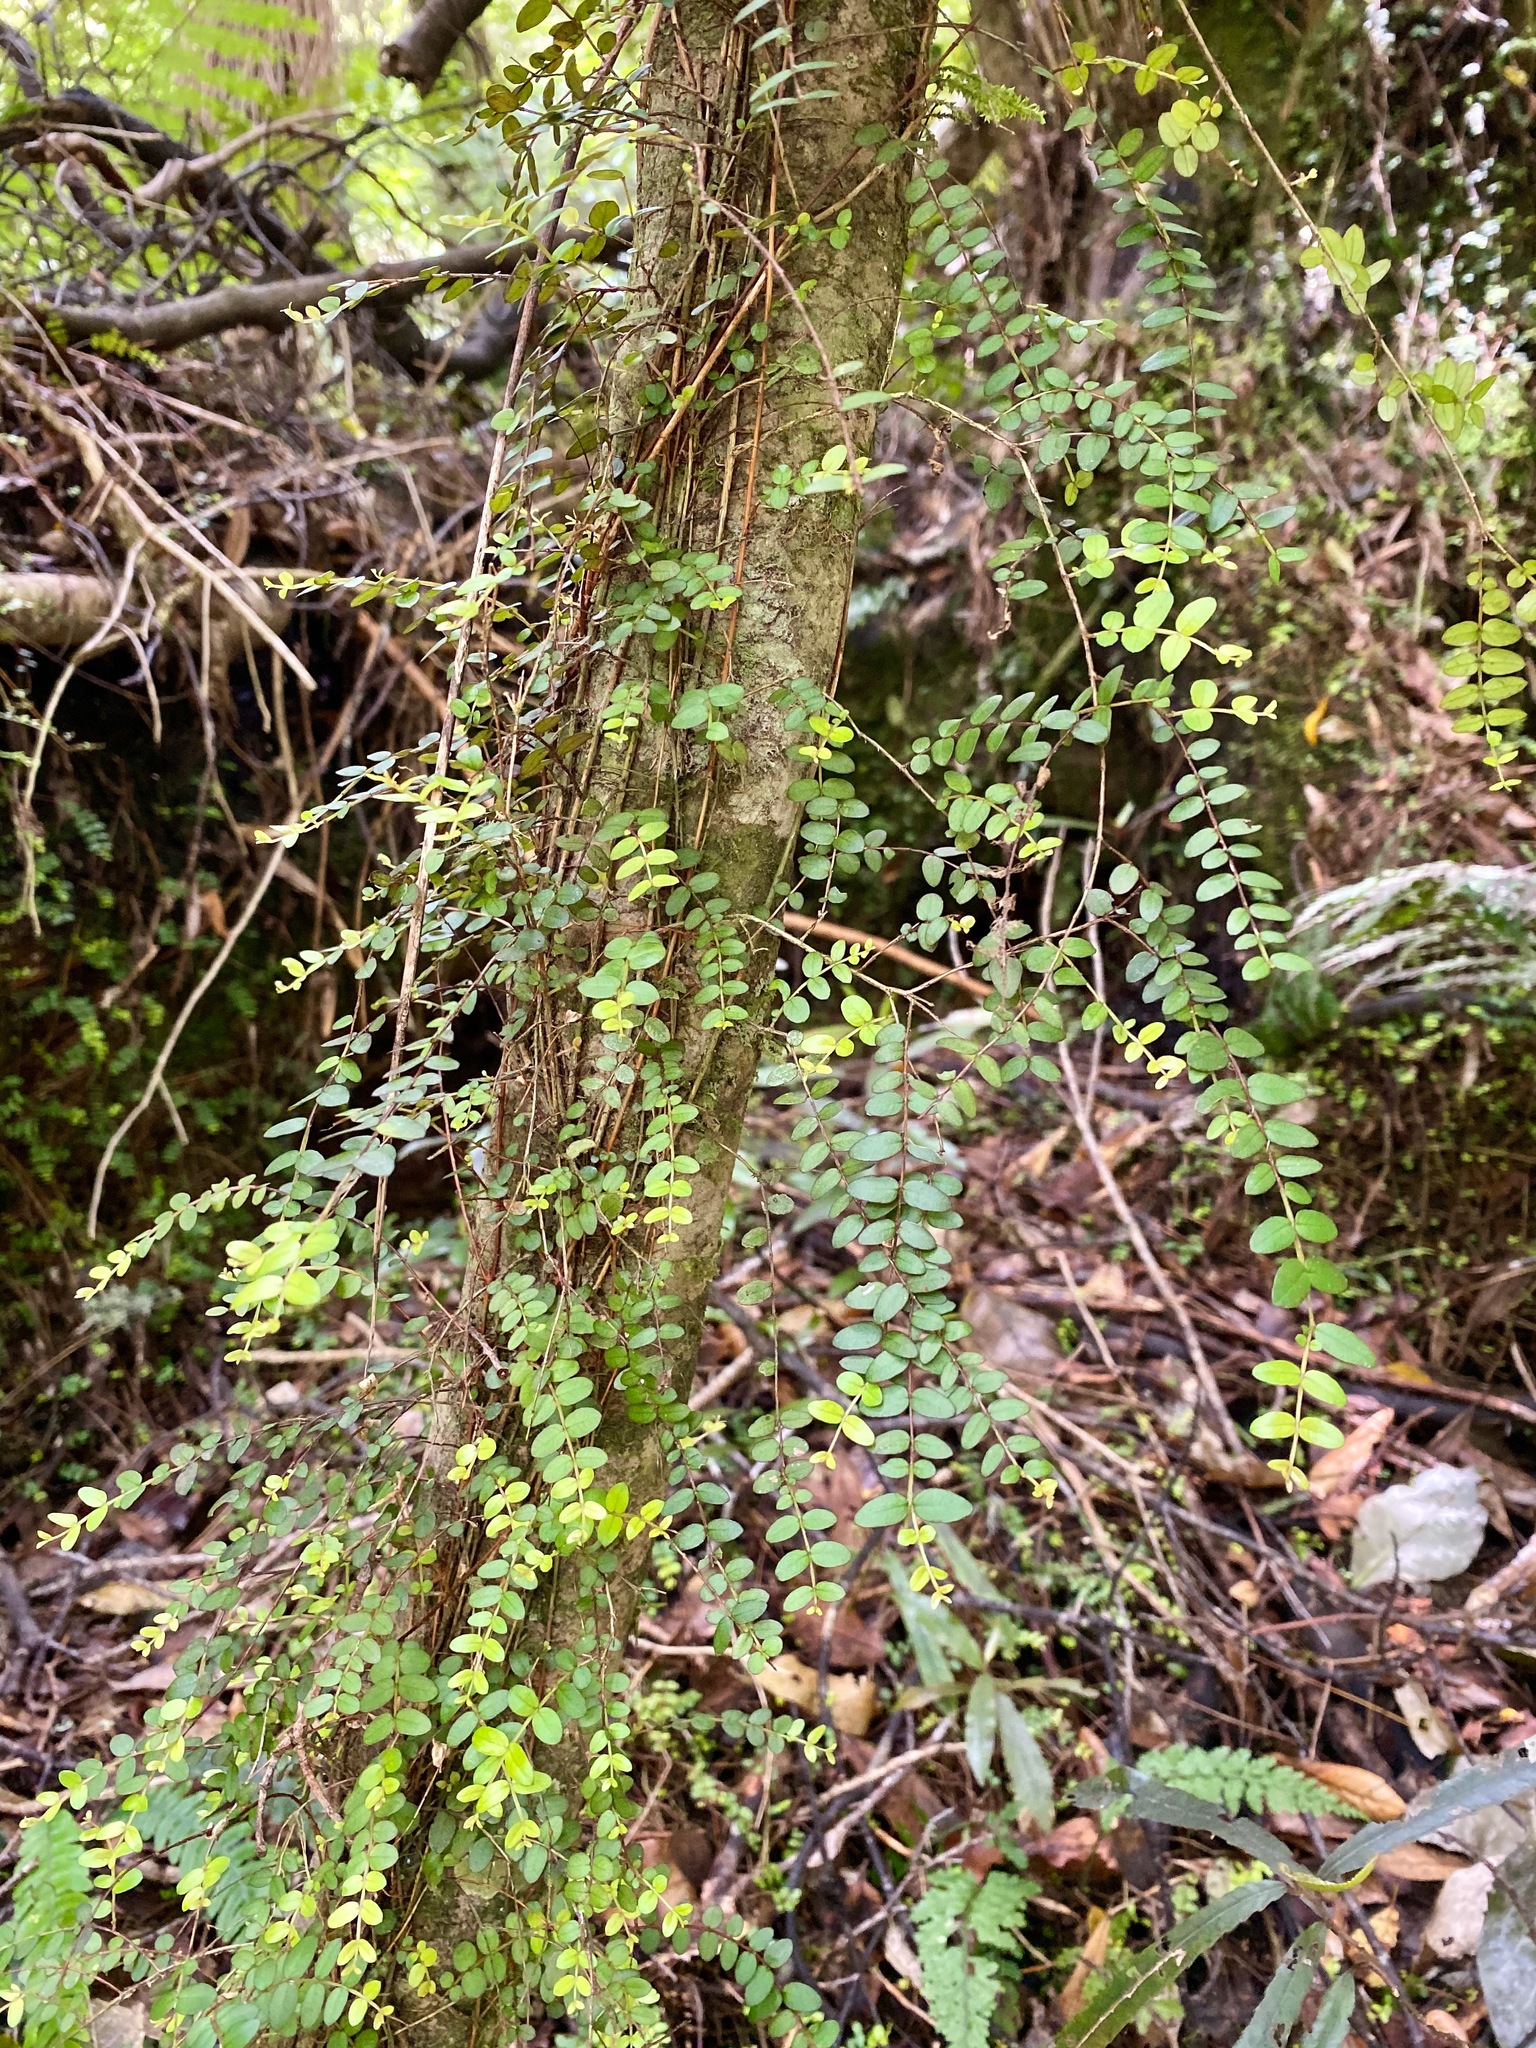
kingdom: Plantae
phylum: Tracheophyta
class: Magnoliopsida
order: Myrtales
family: Myrtaceae
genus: Metrosideros
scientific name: Metrosideros diffusa
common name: Small ratavine
